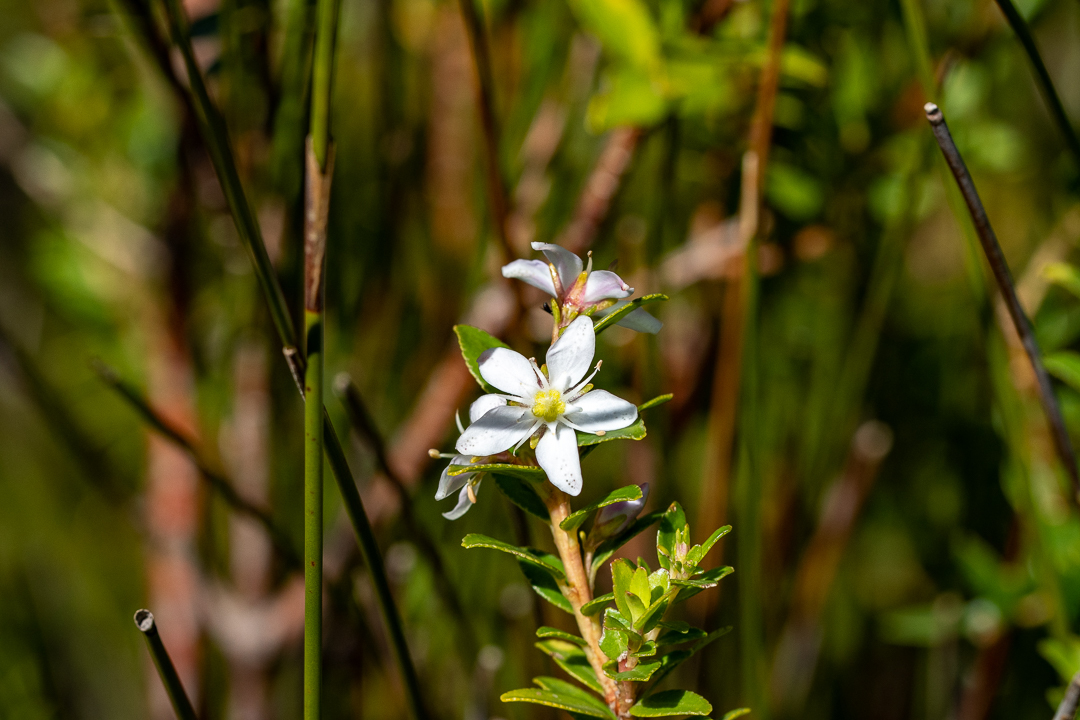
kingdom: Plantae
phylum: Tracheophyta
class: Magnoliopsida
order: Sapindales
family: Rutaceae
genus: Agathosma
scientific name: Agathosma crenulata
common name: Oval buchu
